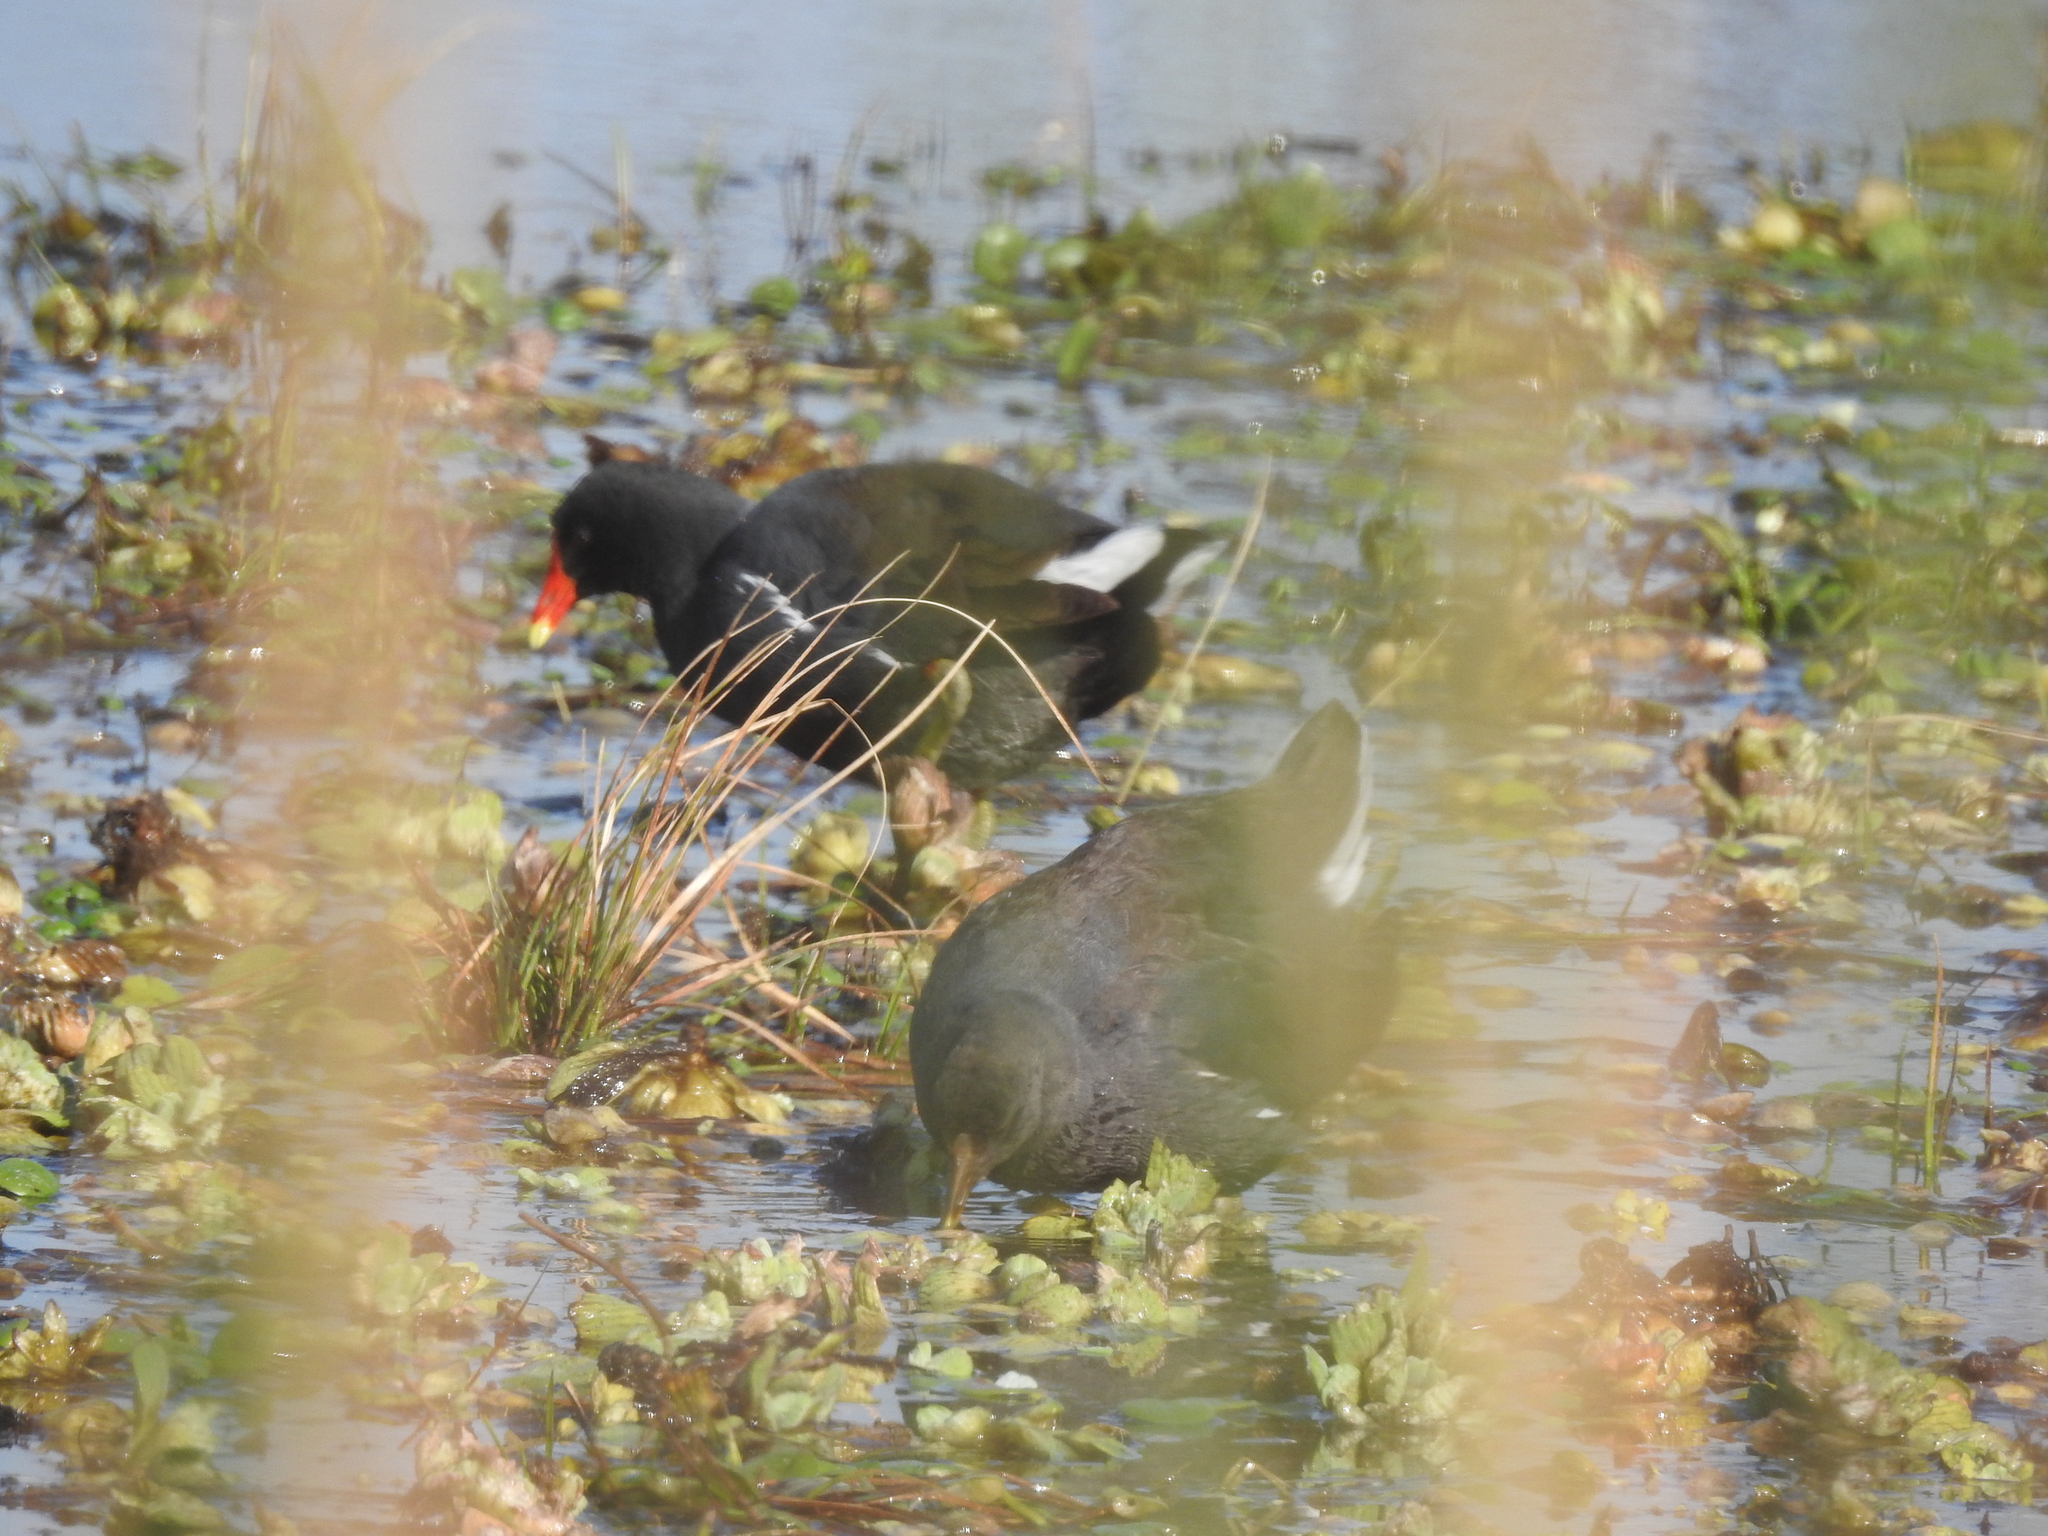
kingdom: Animalia
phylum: Chordata
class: Aves
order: Gruiformes
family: Rallidae
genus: Gallinula
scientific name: Gallinula chloropus
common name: Common moorhen
